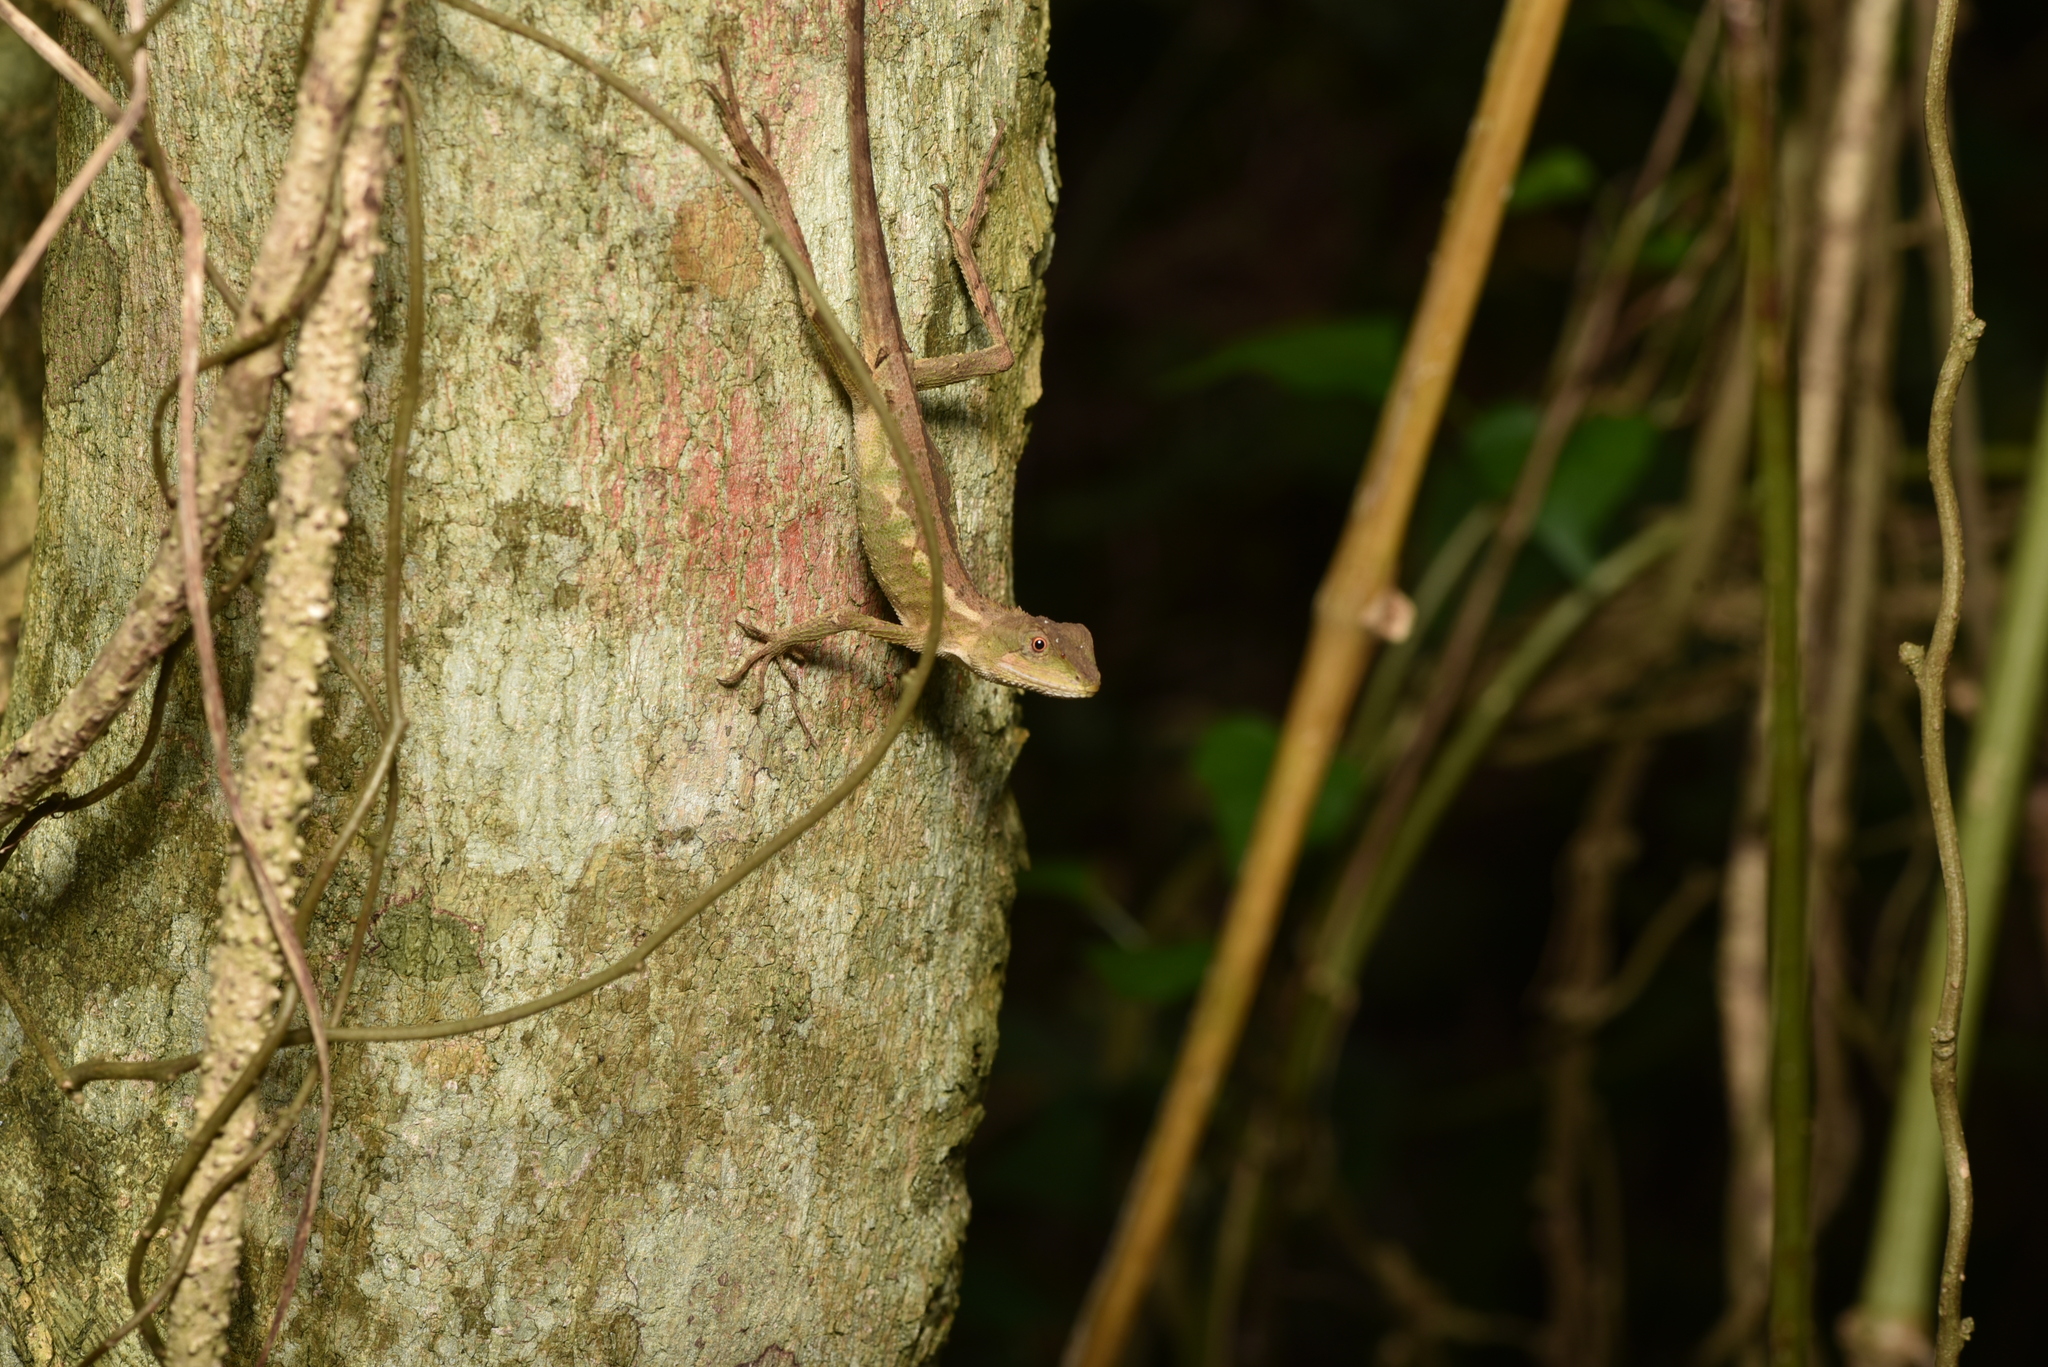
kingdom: Animalia
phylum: Chordata
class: Squamata
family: Agamidae
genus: Diploderma
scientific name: Diploderma swinhonis
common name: Taiwan japalure
